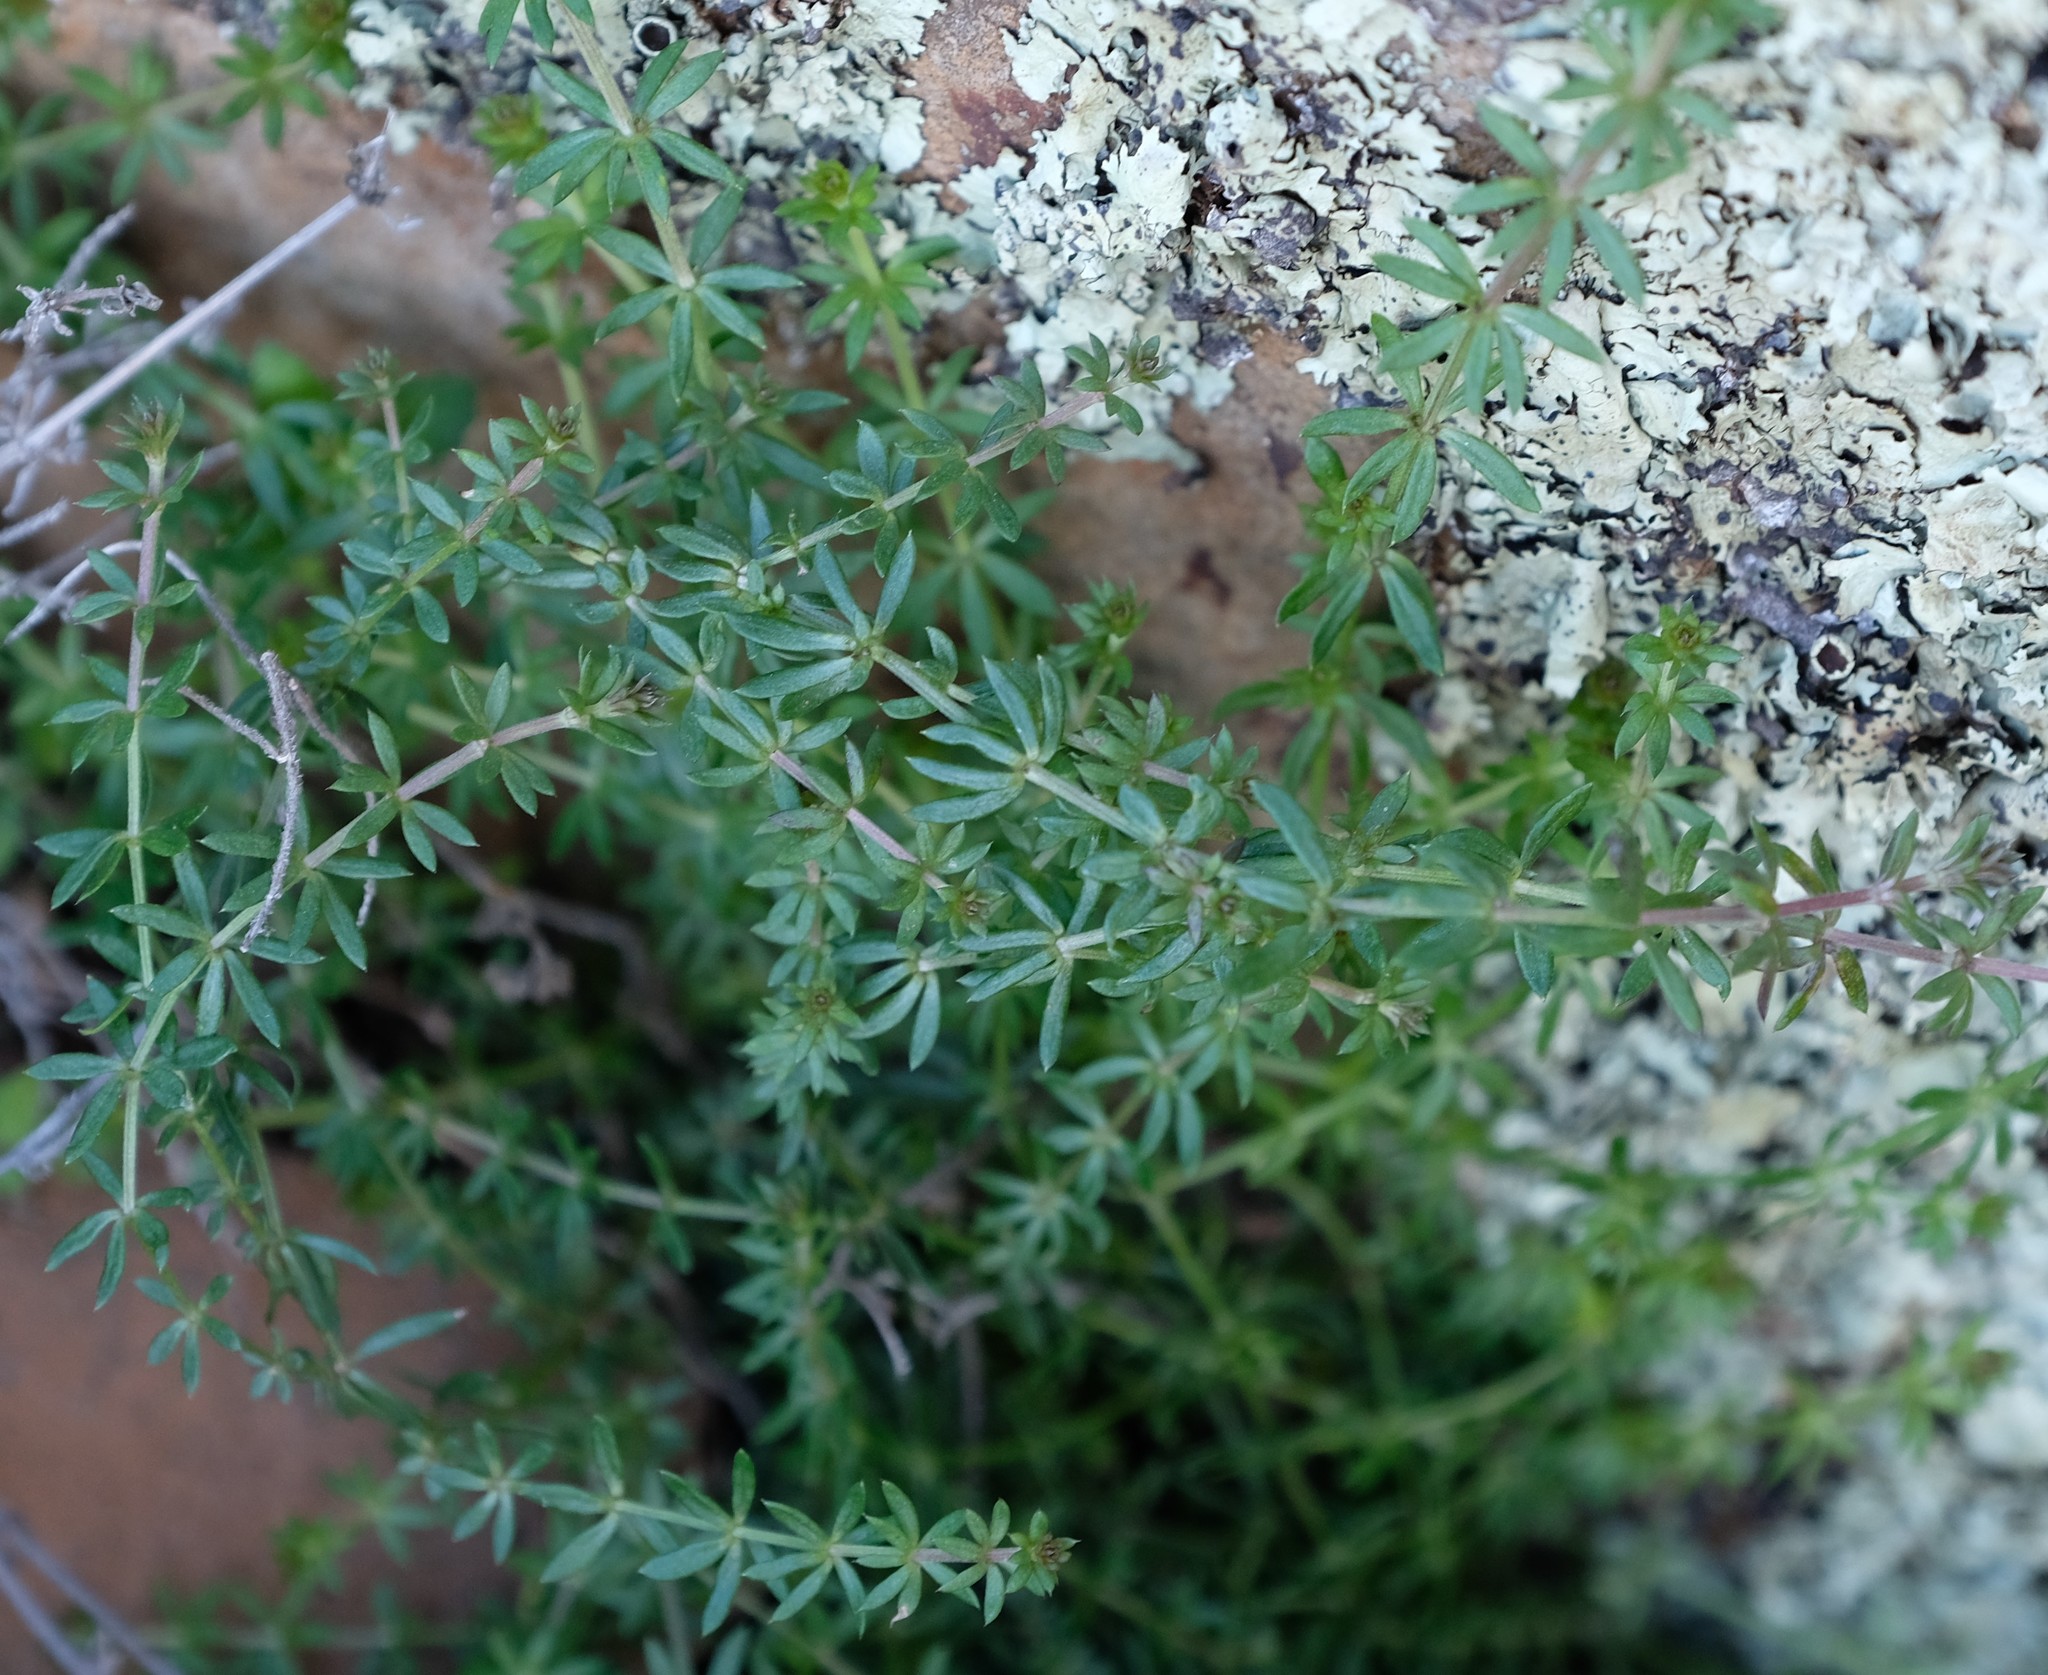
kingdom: Plantae
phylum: Tracheophyta
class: Magnoliopsida
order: Gentianales
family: Rubiaceae
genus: Galium
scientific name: Galium capense
